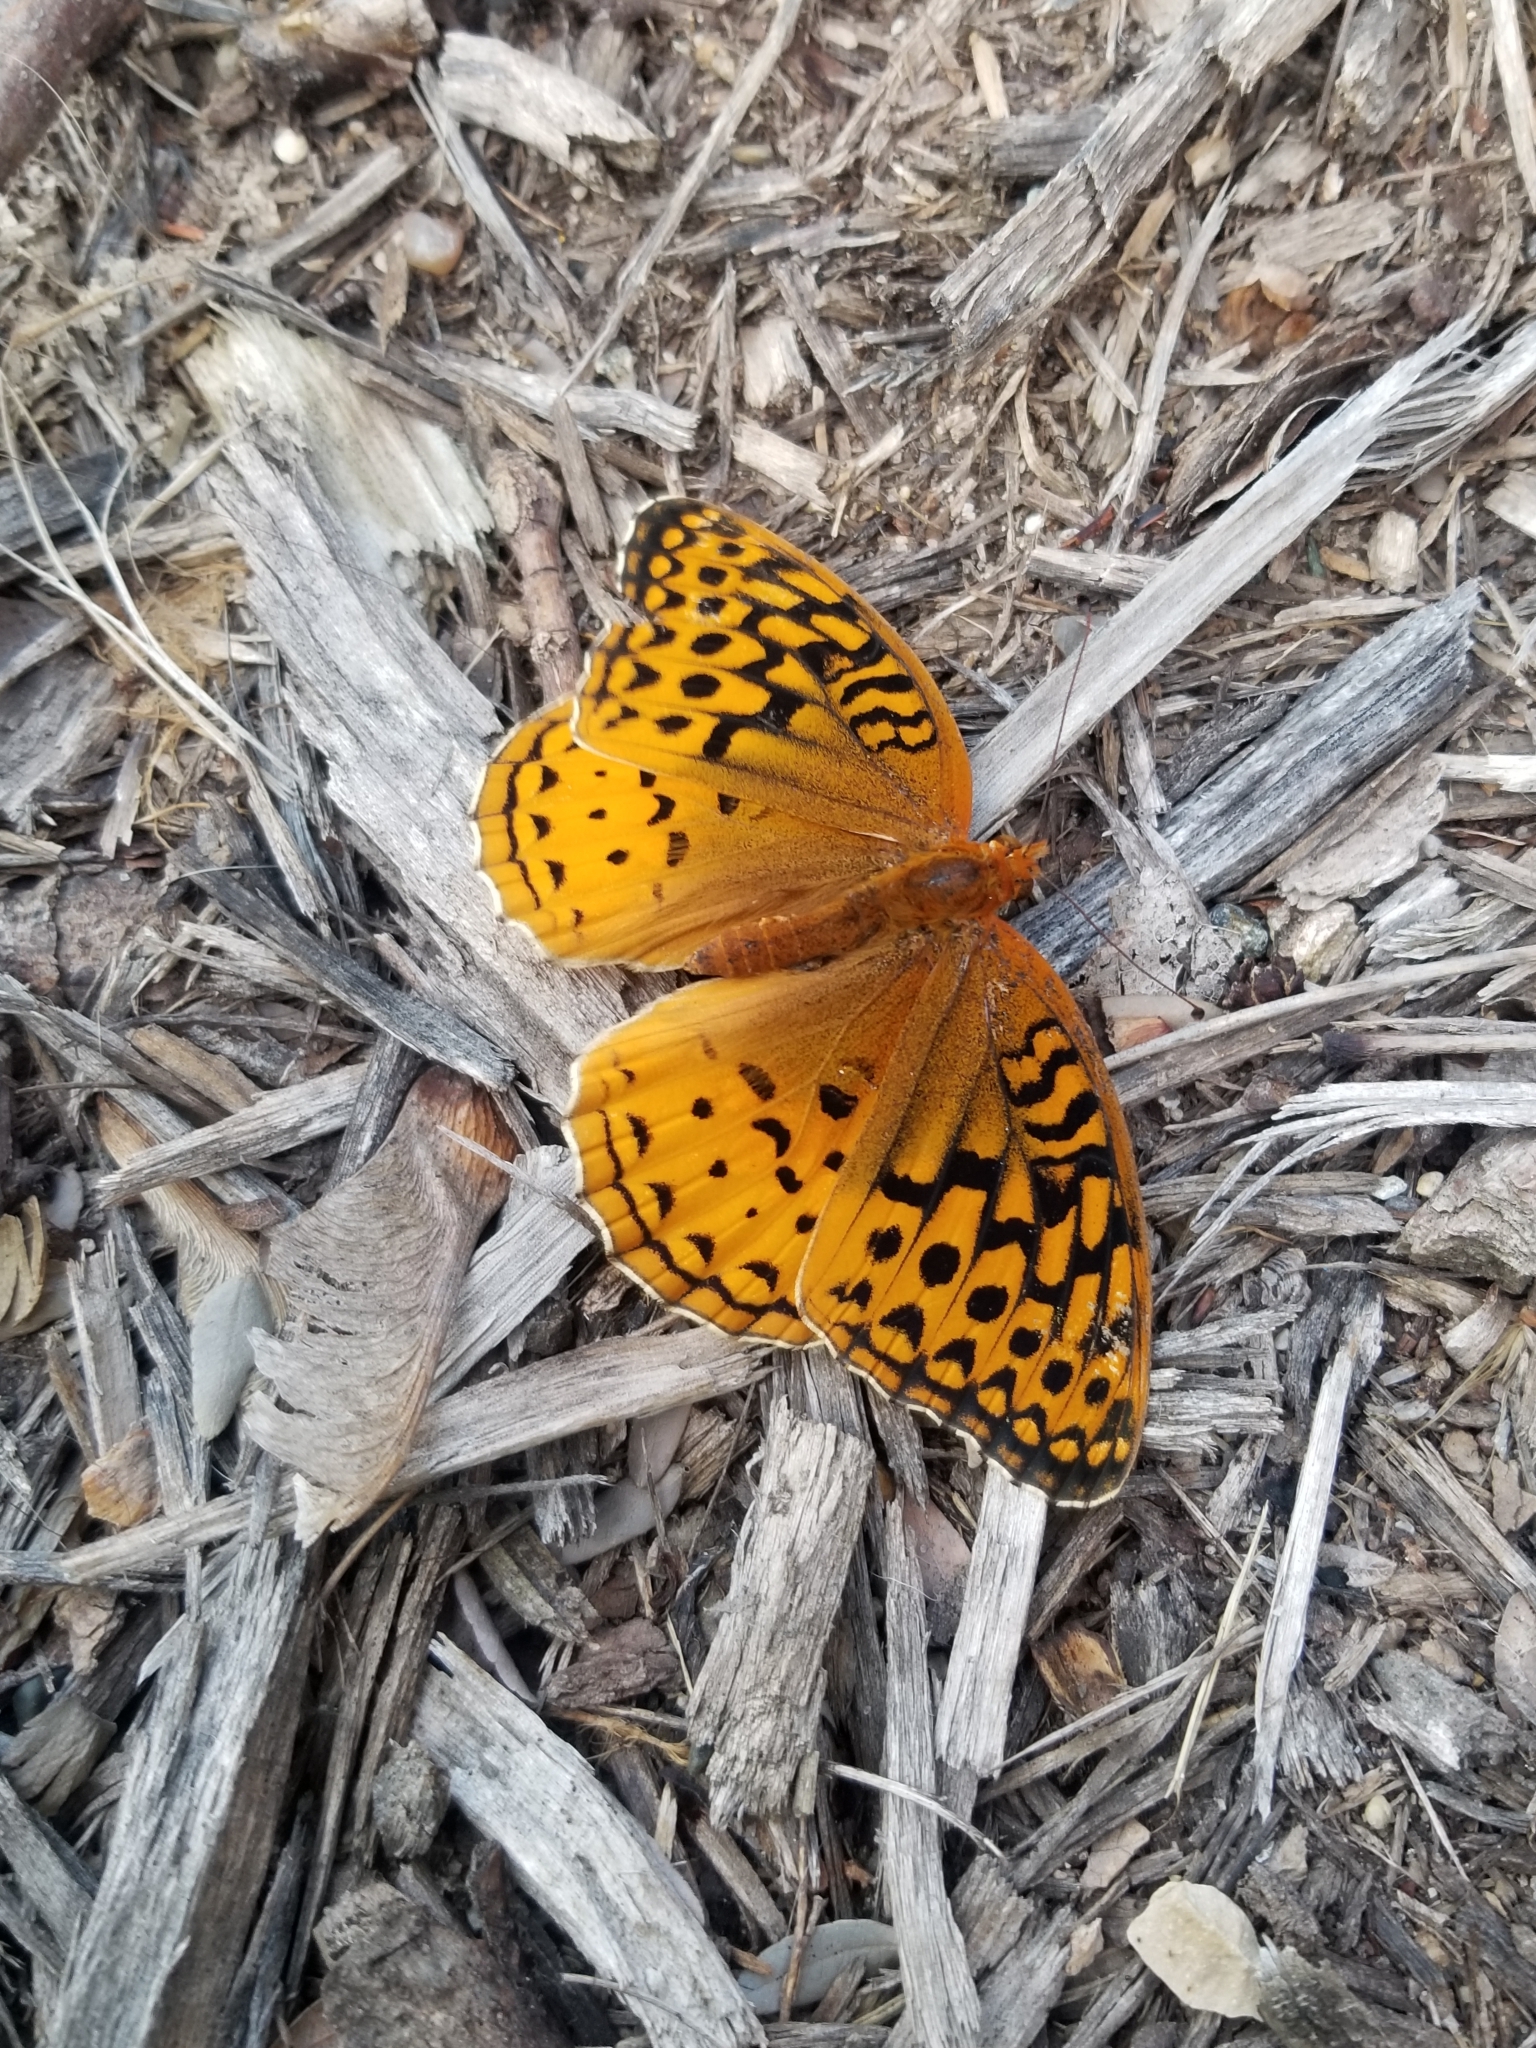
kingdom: Animalia
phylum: Arthropoda
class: Insecta
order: Lepidoptera
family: Nymphalidae
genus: Speyeria
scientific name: Speyeria cybele
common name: Great spangled fritillary
